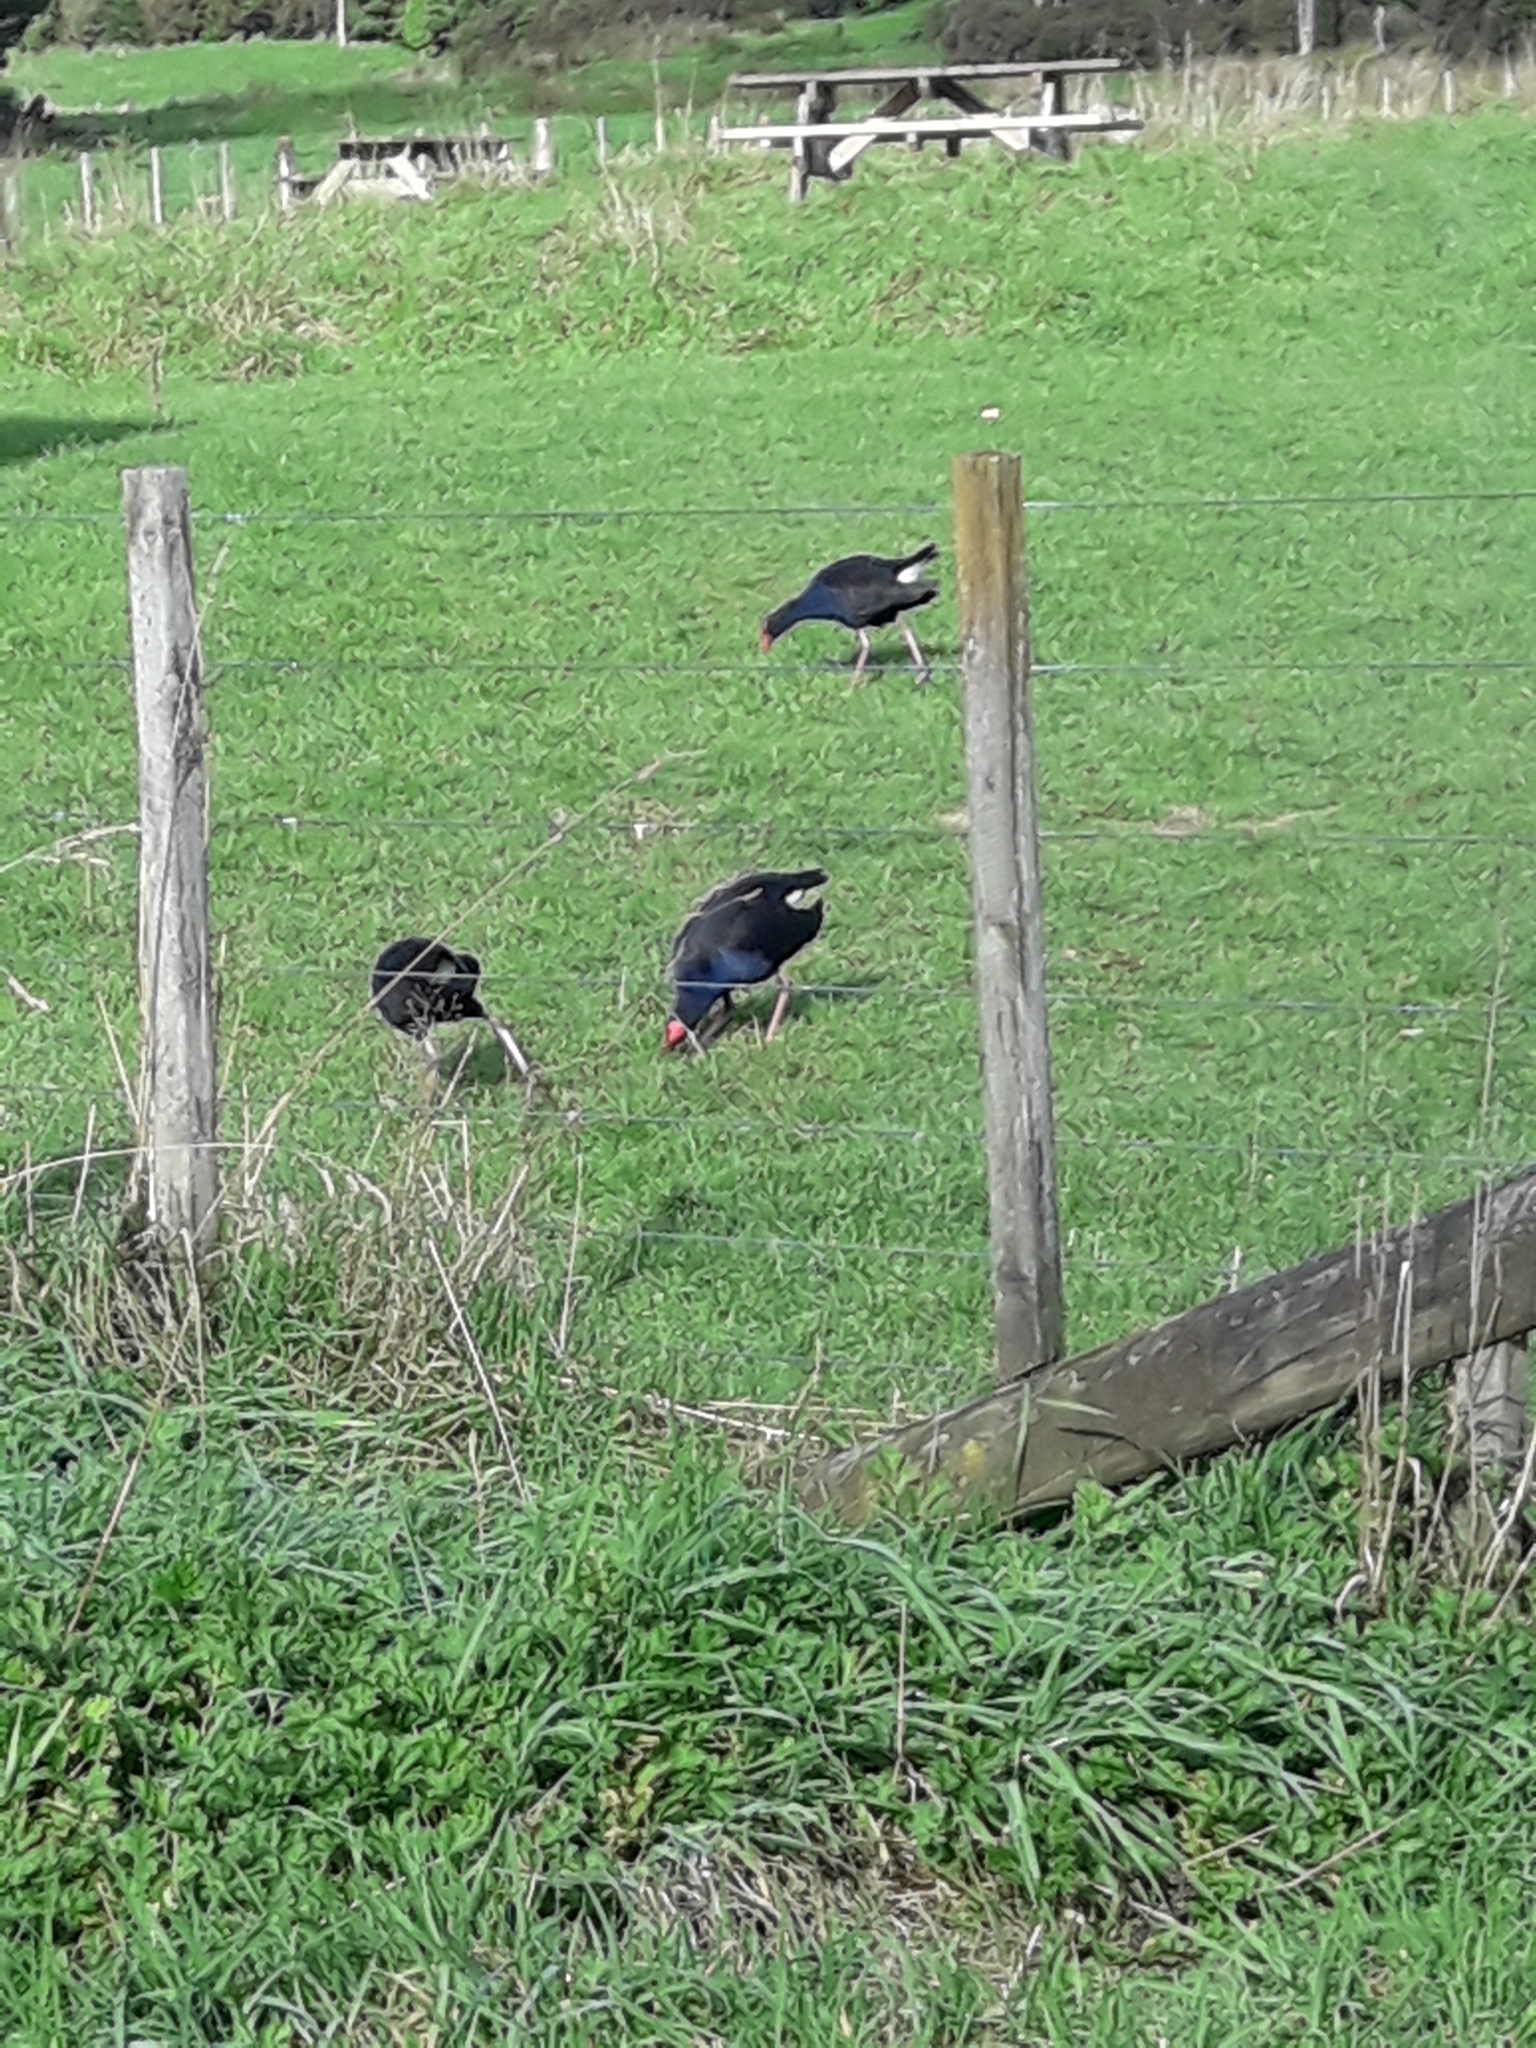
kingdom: Animalia
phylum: Chordata
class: Aves
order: Gruiformes
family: Rallidae
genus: Porphyrio
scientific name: Porphyrio melanotus
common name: Australasian swamphen
